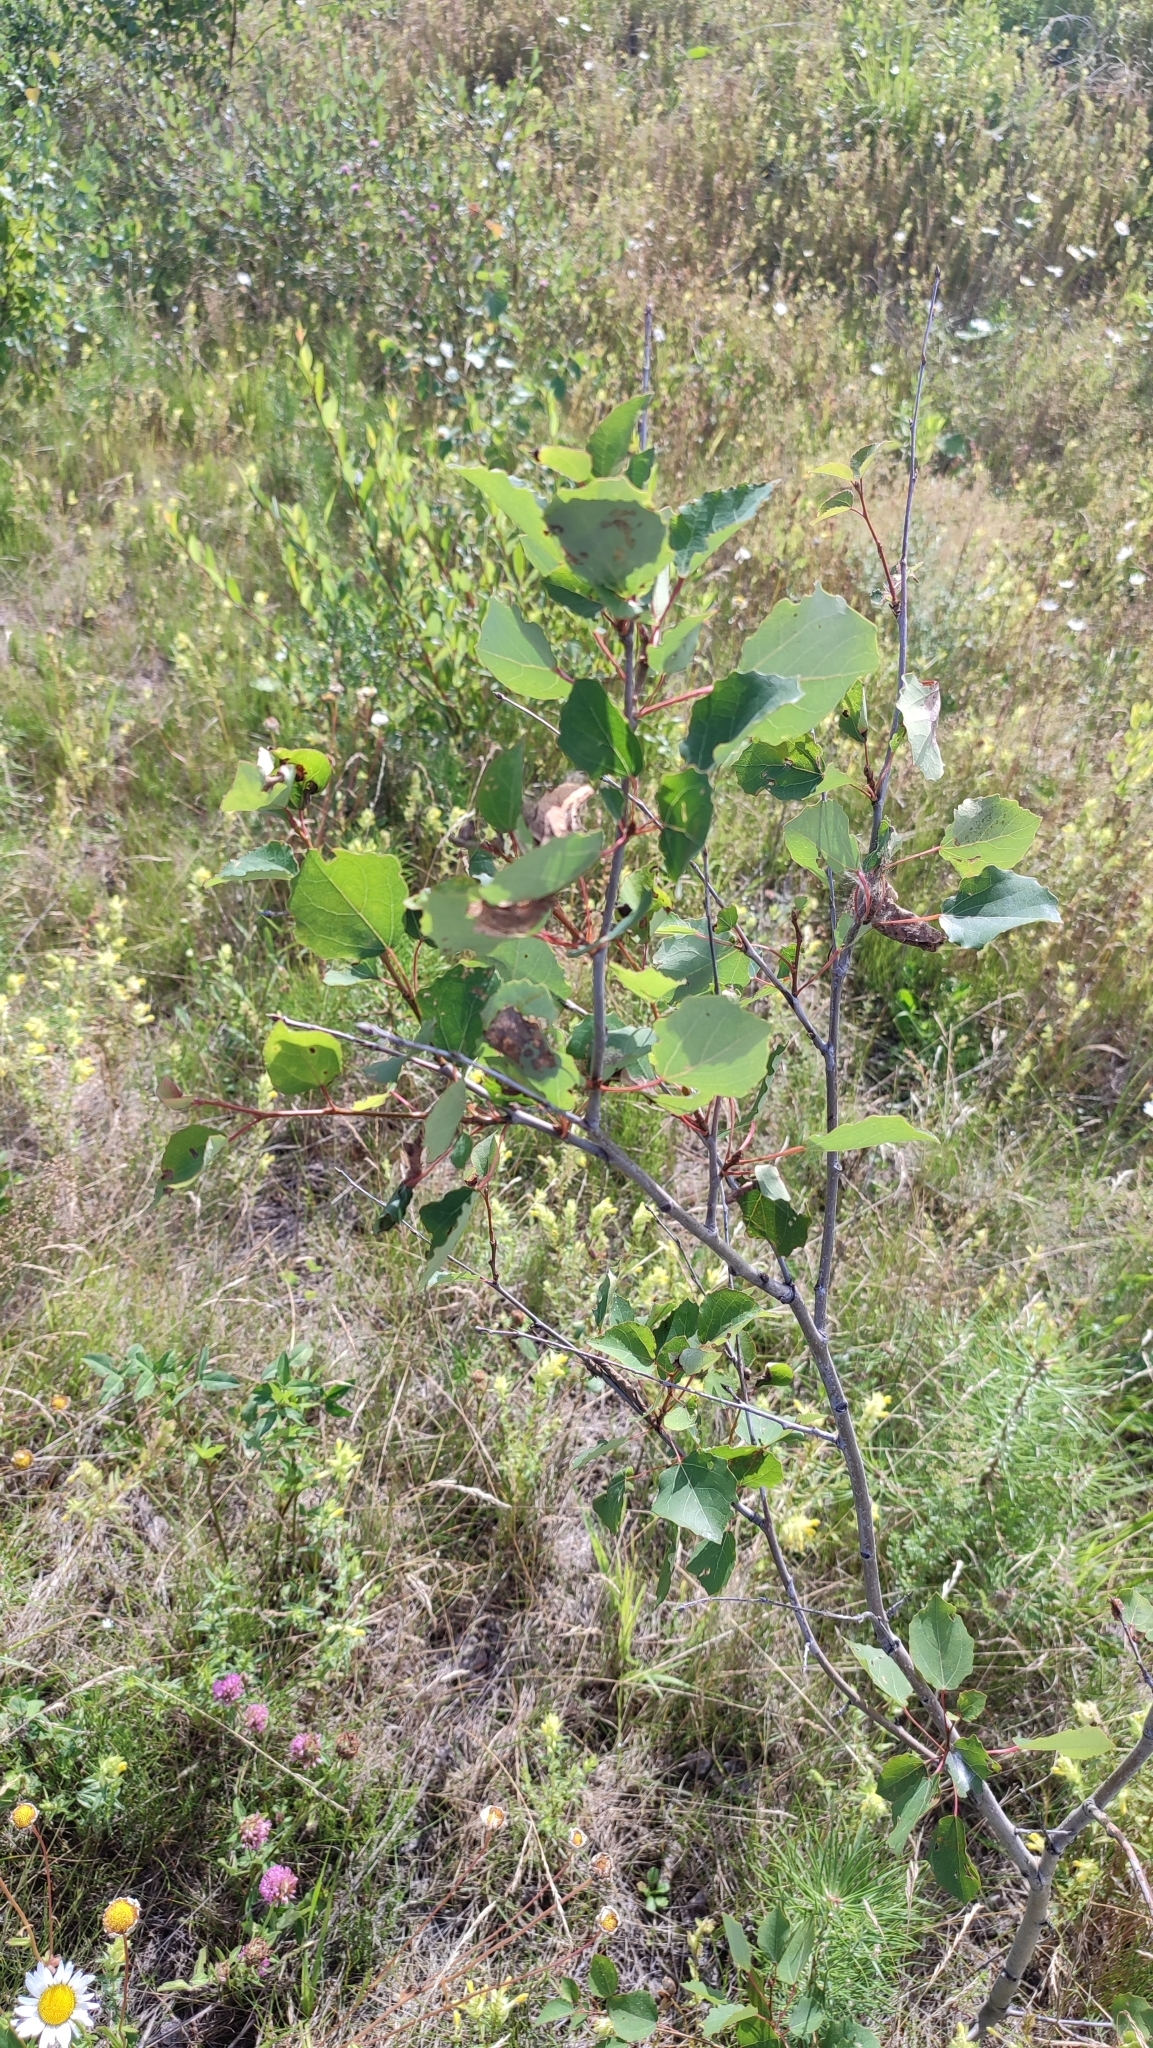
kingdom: Plantae
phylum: Tracheophyta
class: Magnoliopsida
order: Malpighiales
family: Salicaceae
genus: Populus
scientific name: Populus tremula
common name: European aspen
